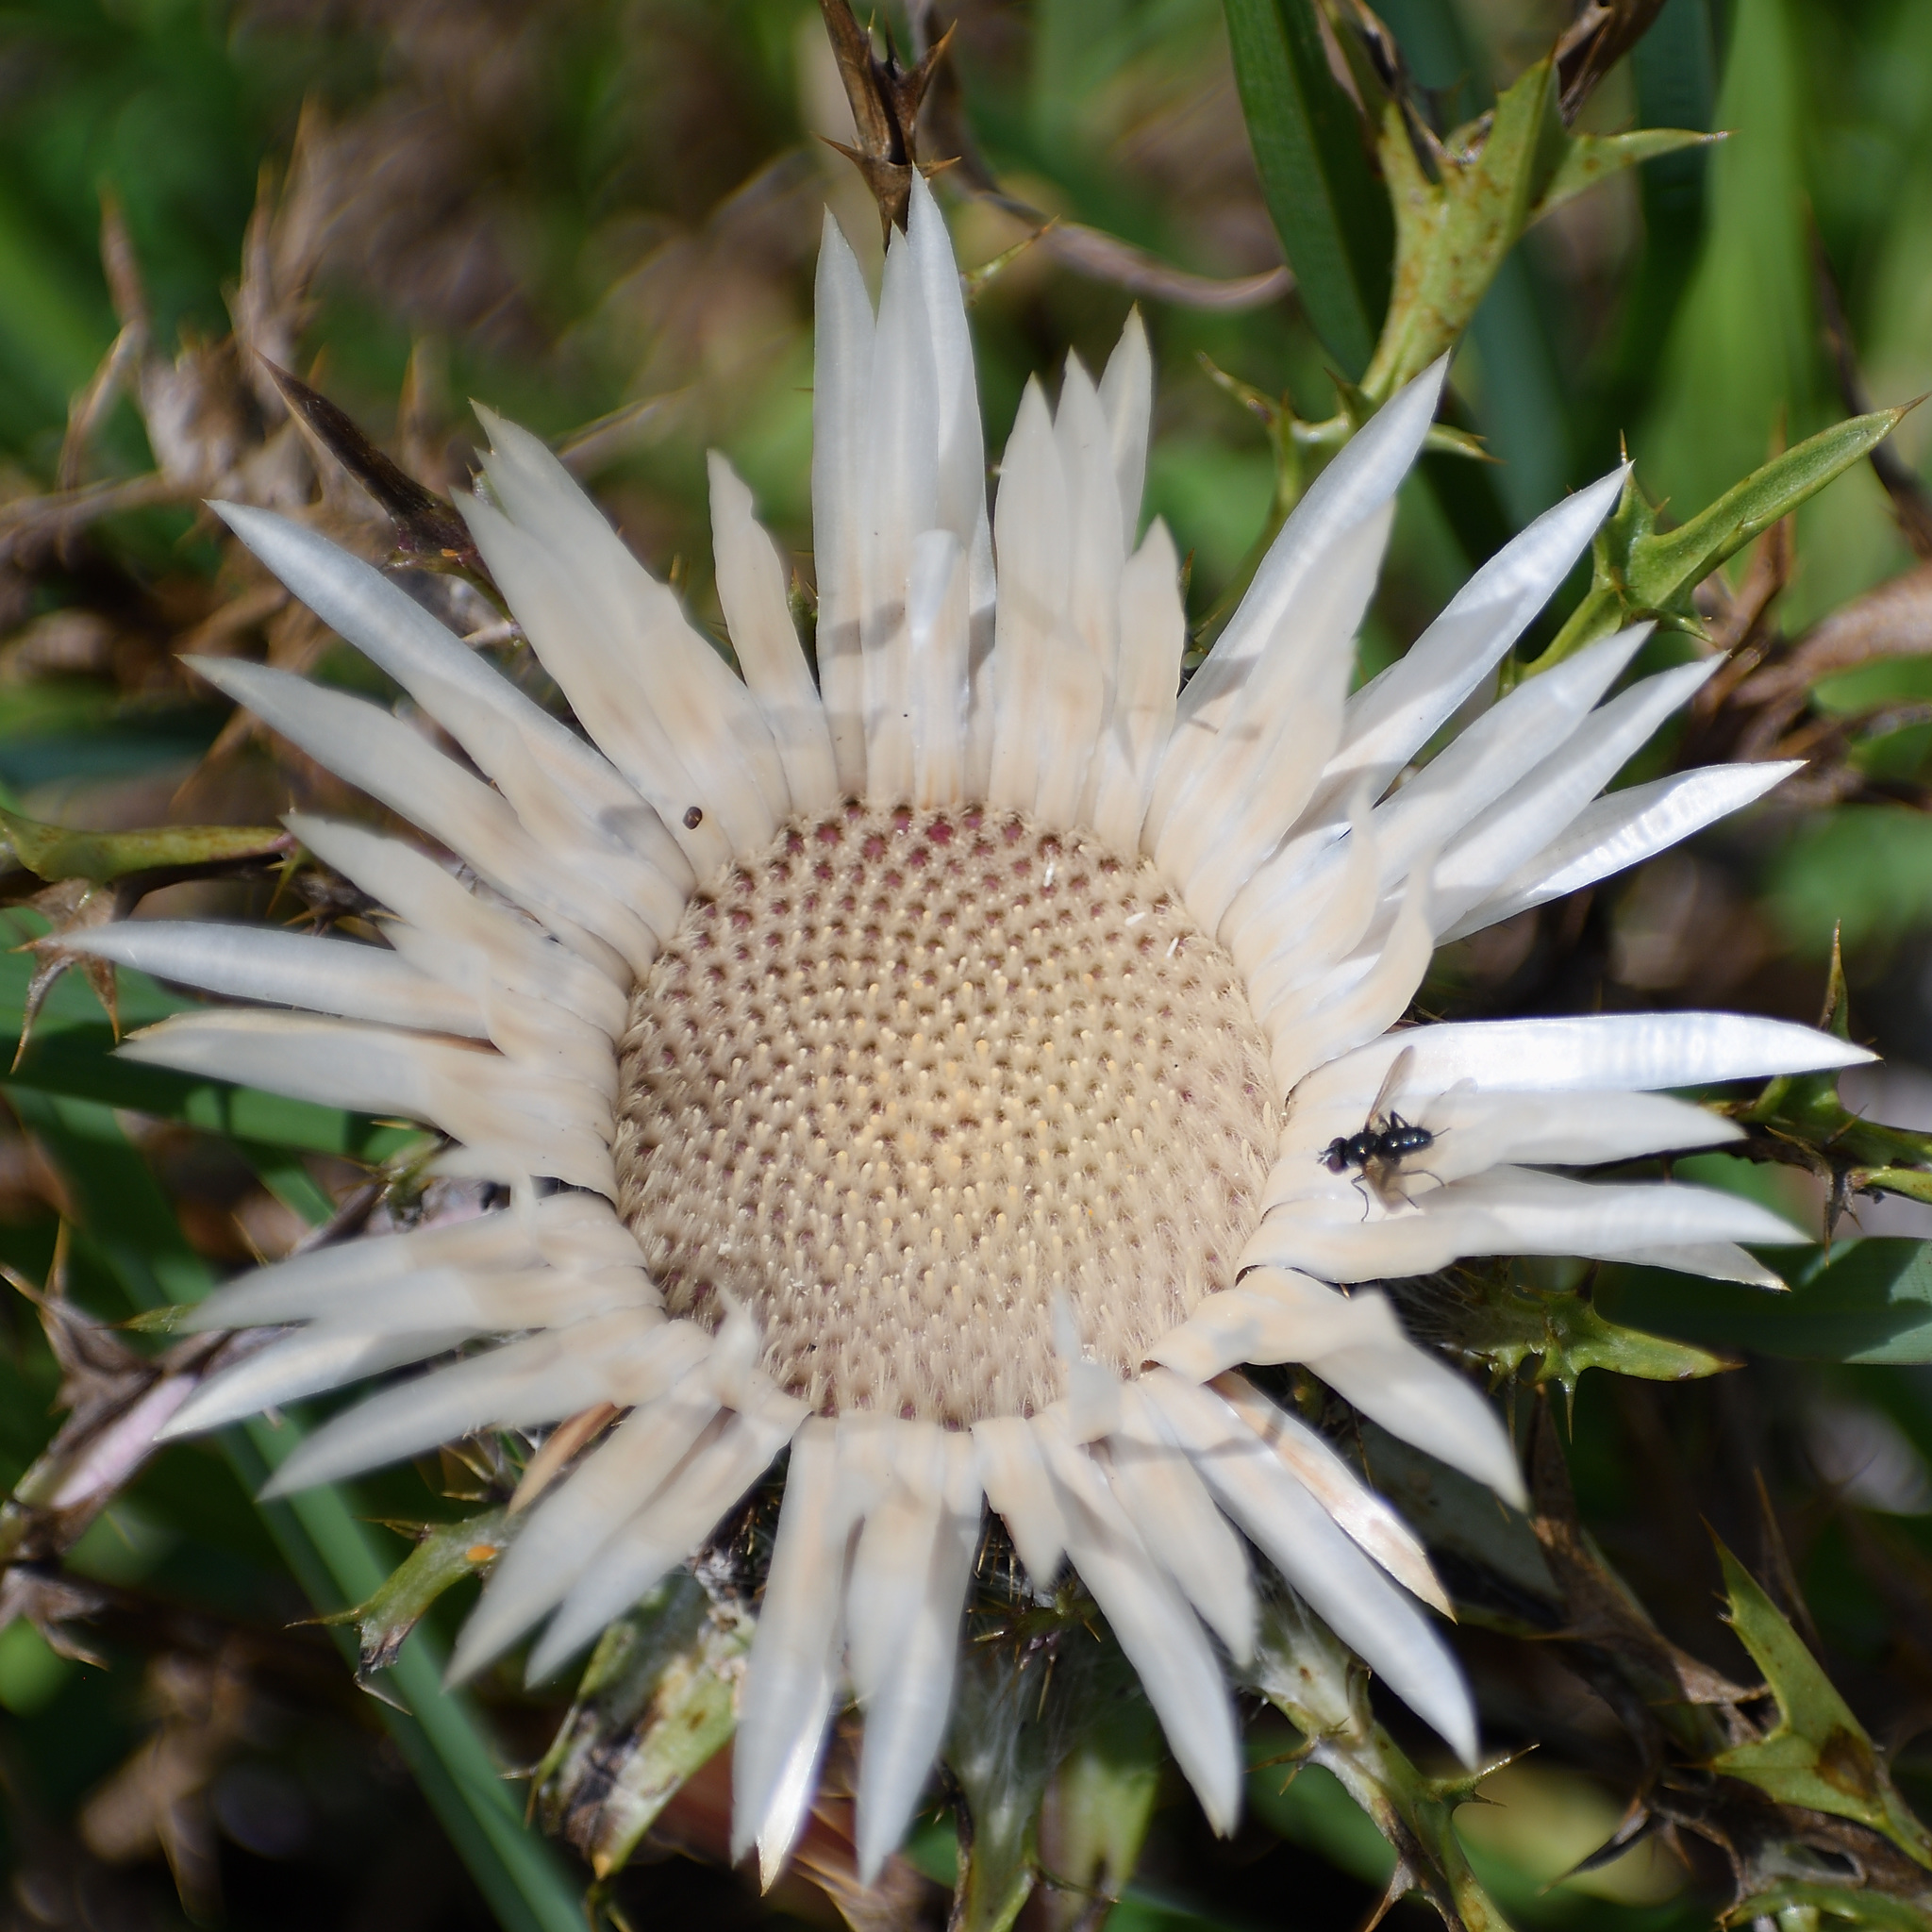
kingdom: Plantae
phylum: Tracheophyta
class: Magnoliopsida
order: Asterales
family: Asteraceae
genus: Carlina
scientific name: Carlina acaulis
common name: Stemless carline thistle
